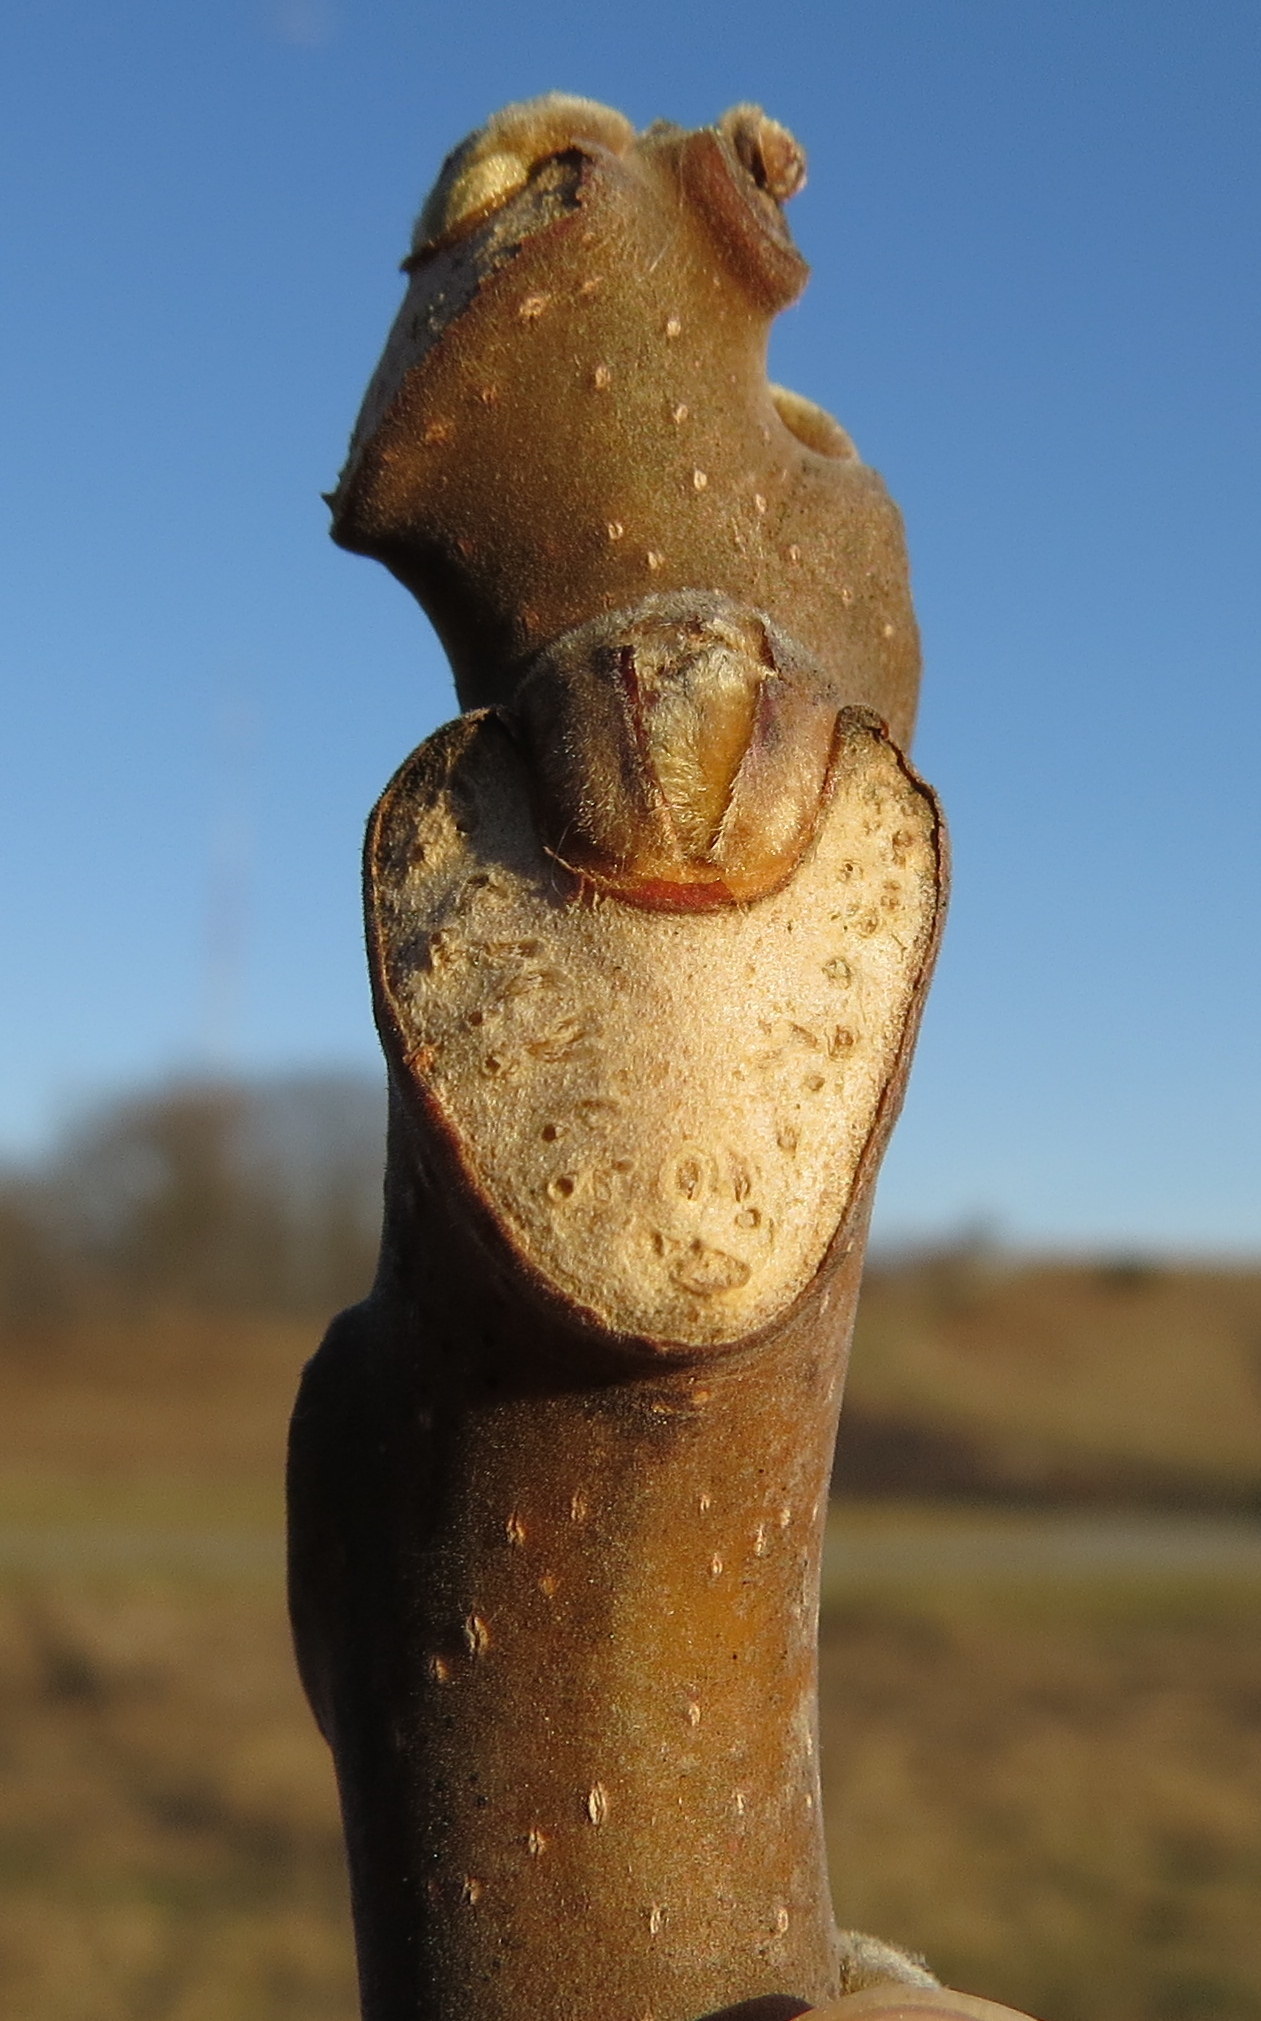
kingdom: Plantae
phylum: Tracheophyta
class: Magnoliopsida
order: Sapindales
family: Simaroubaceae
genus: Ailanthus
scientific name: Ailanthus altissima
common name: Tree-of-heaven
